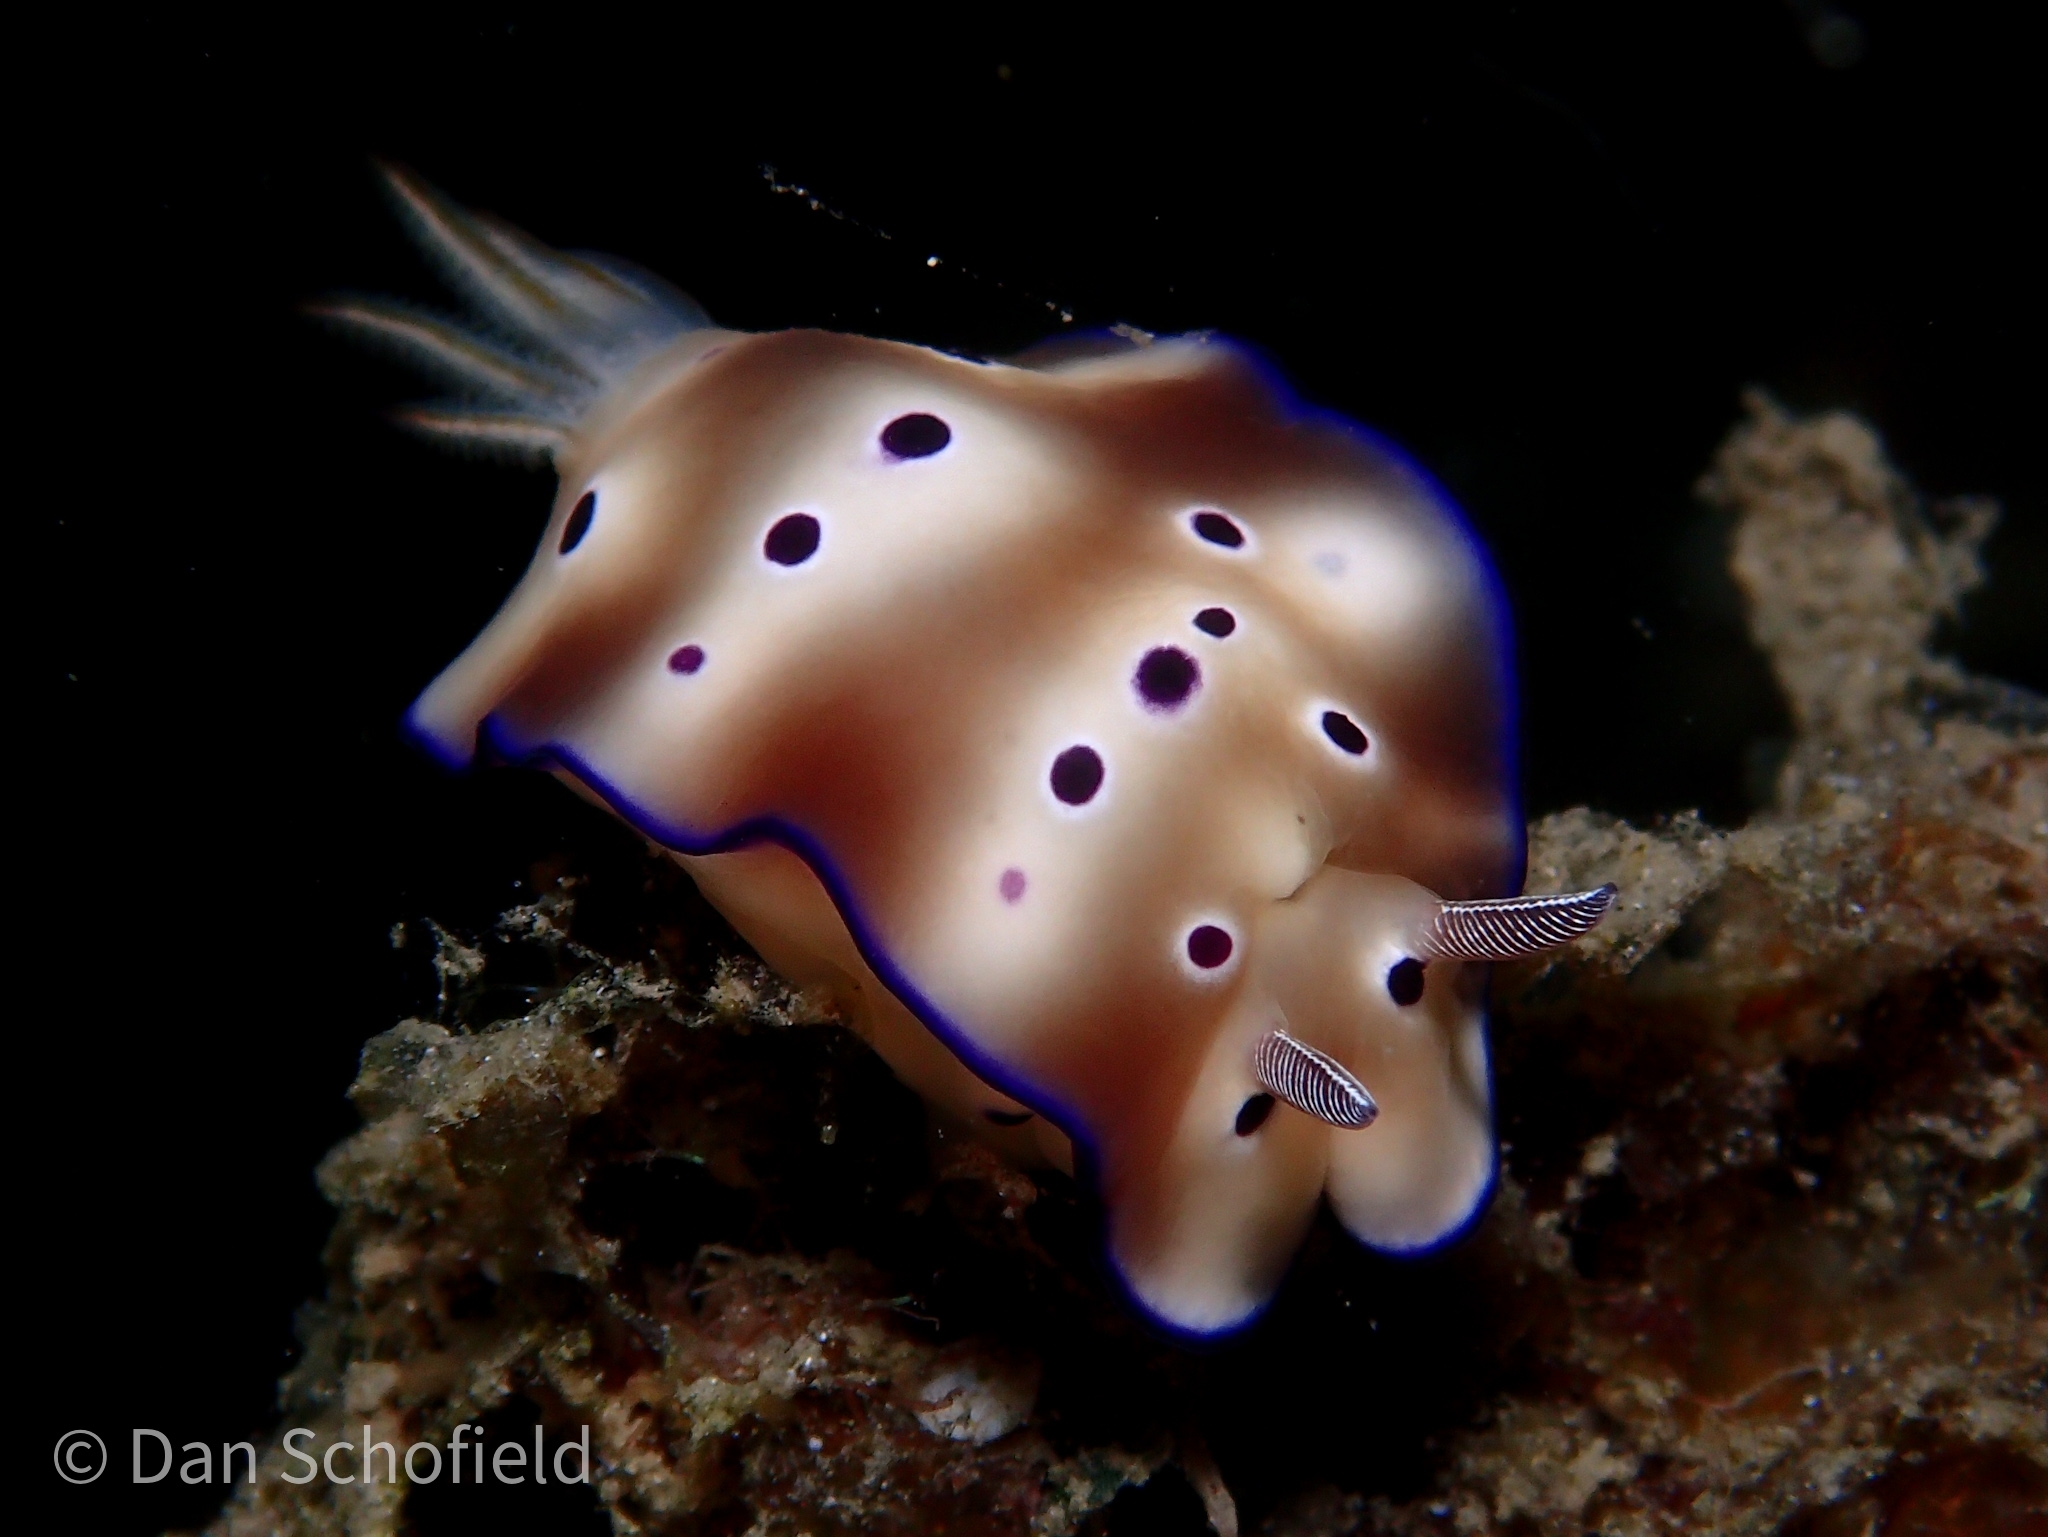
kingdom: Animalia
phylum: Mollusca
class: Gastropoda
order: Nudibranchia
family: Chromodorididae
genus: Hypselodoris
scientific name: Hypselodoris tryoni
